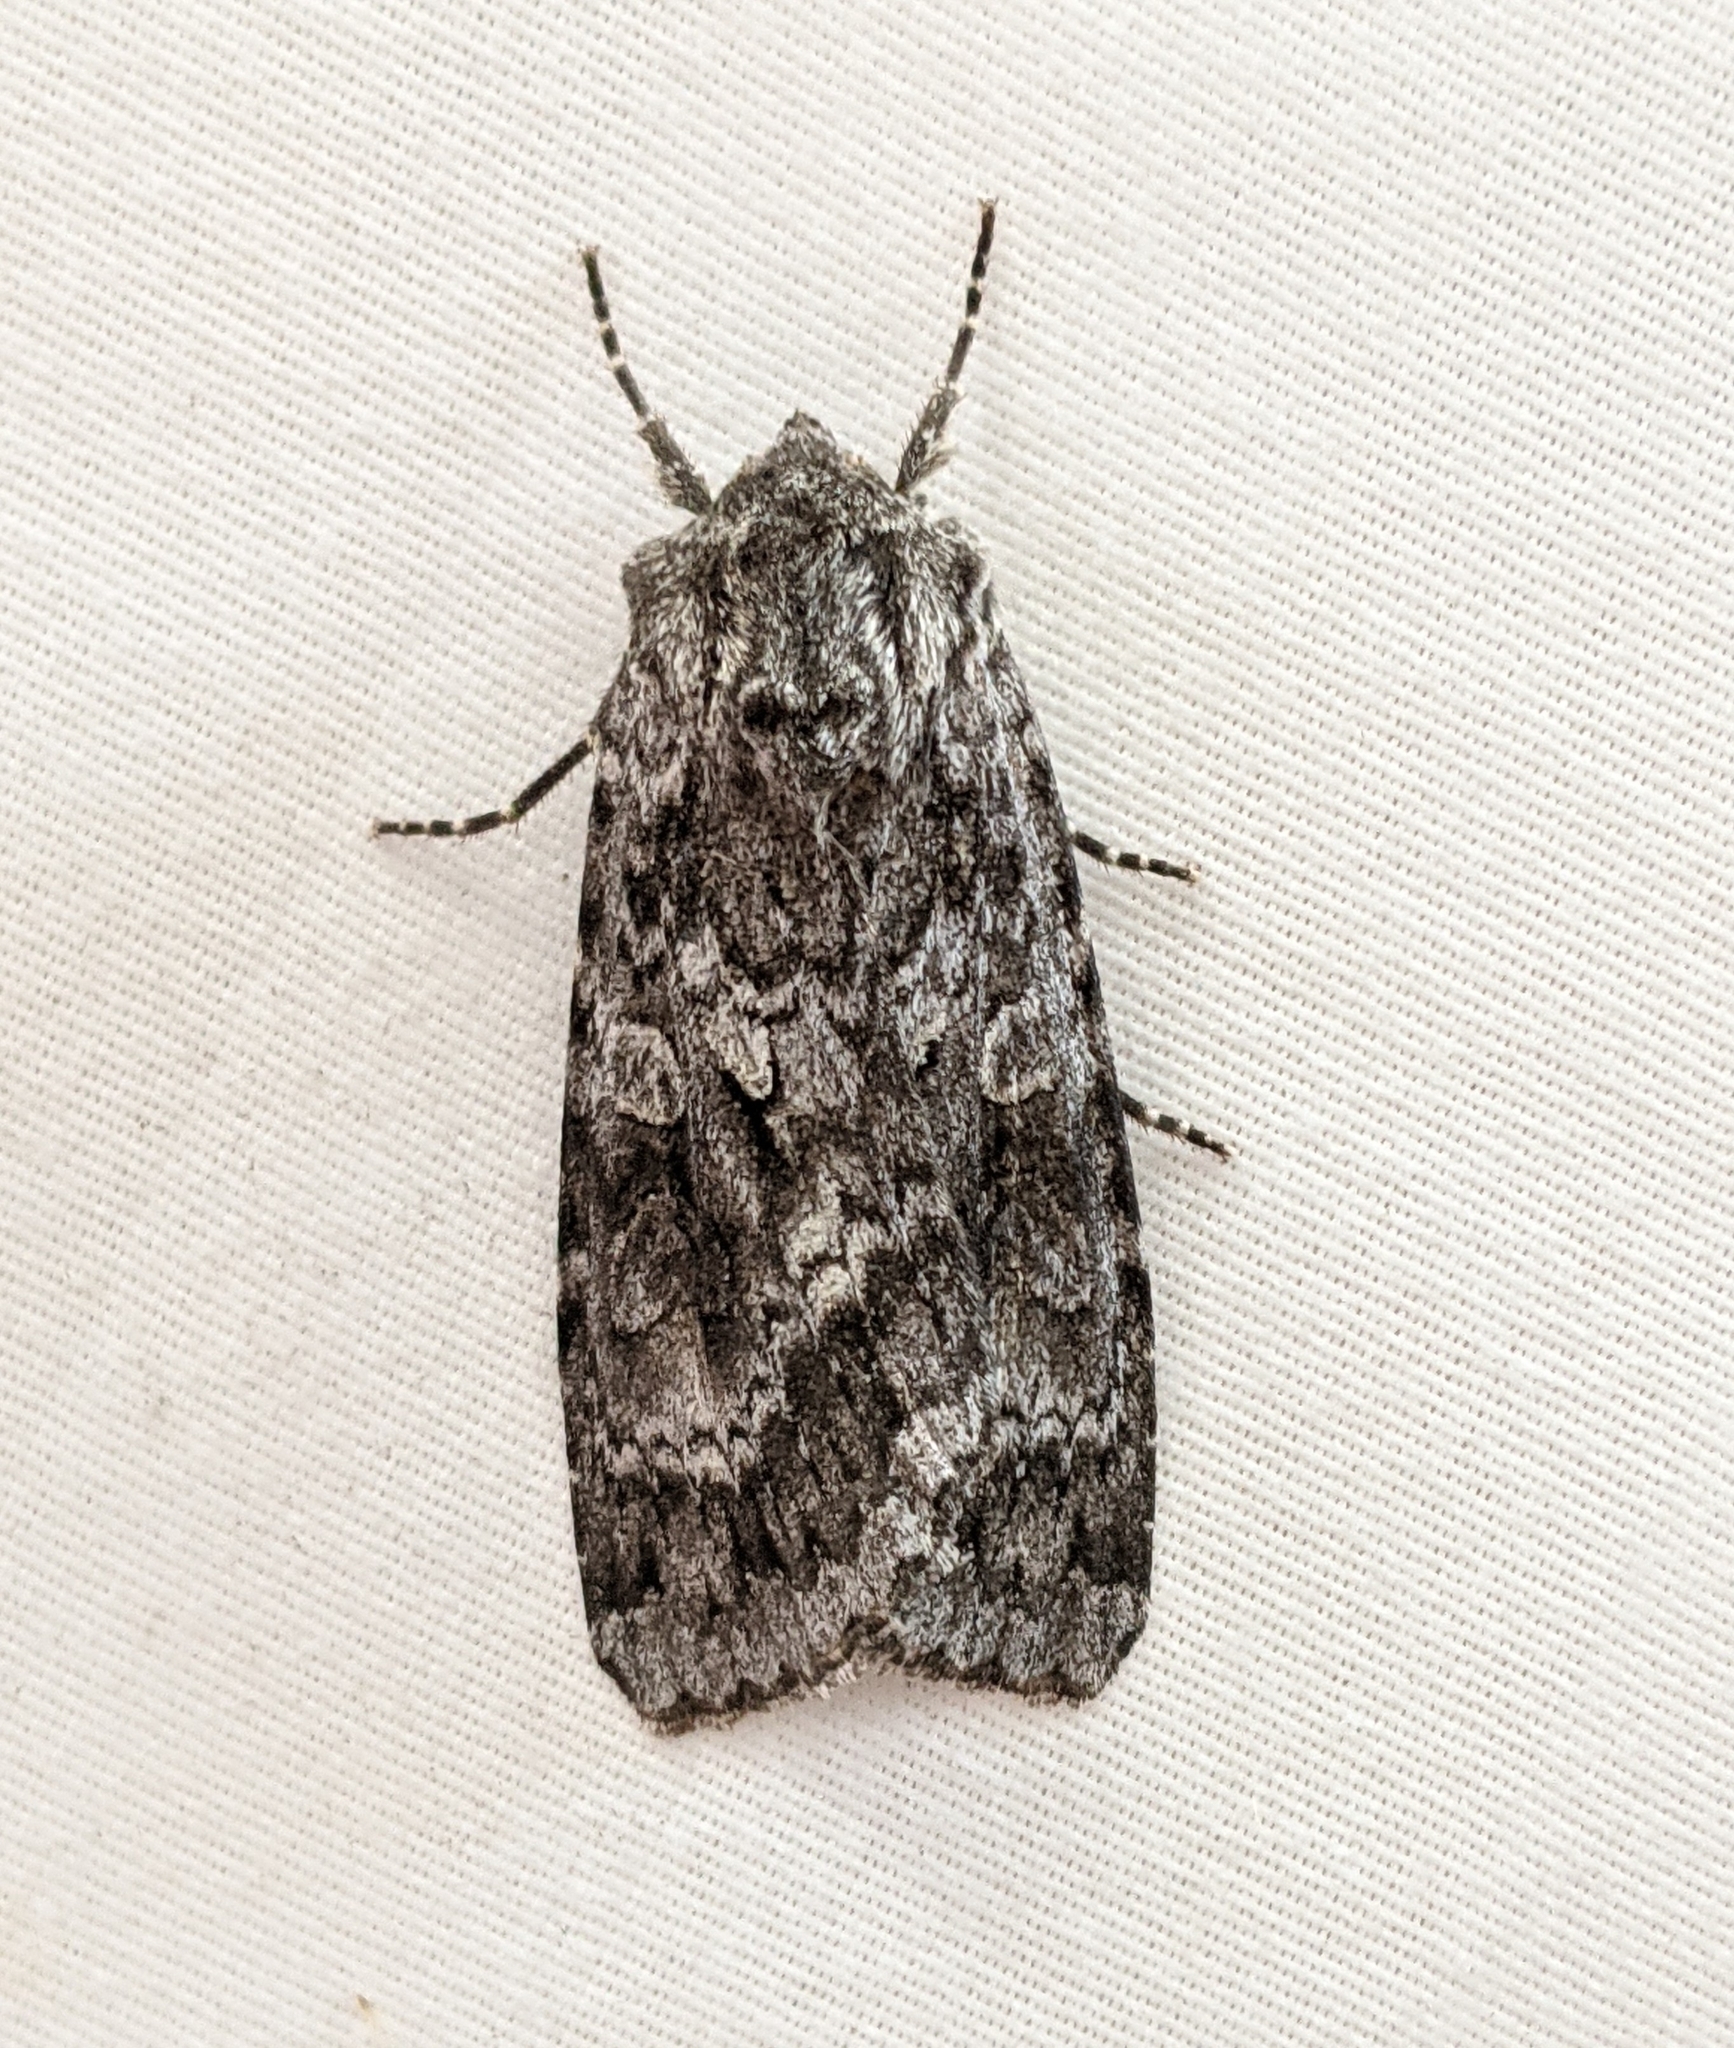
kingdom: Animalia
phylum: Arthropoda
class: Insecta
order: Lepidoptera
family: Noctuidae
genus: Eurois
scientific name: Eurois occulta
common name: Great brocade
